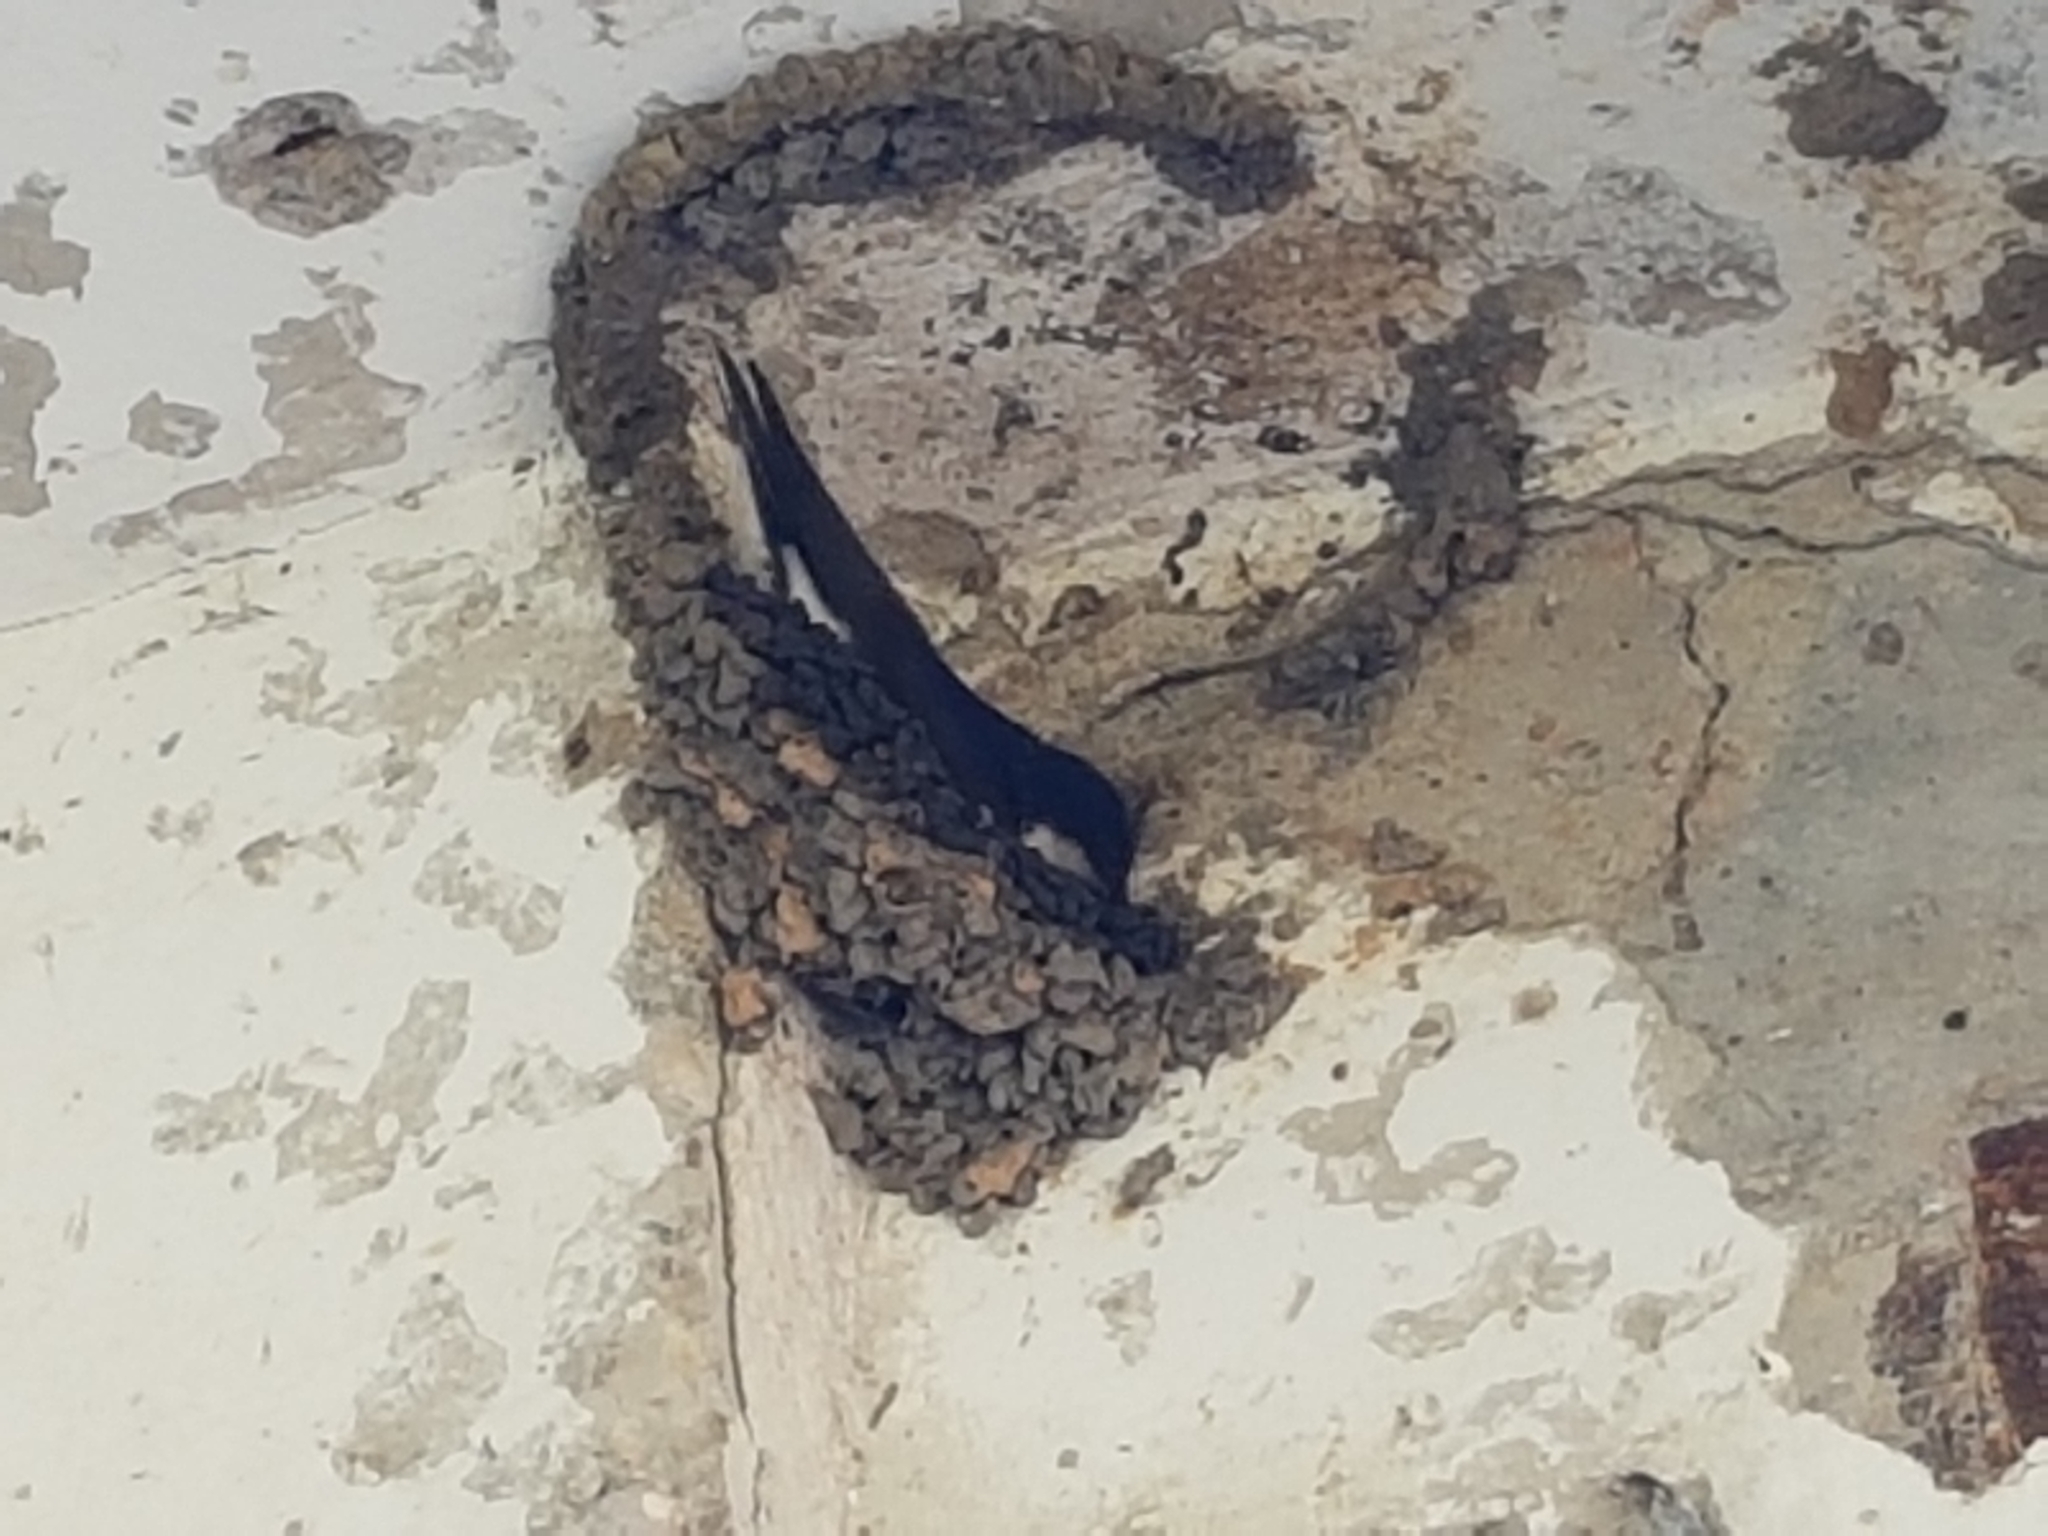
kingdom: Animalia
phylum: Chordata
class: Aves
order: Passeriformes
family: Hirundinidae
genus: Delichon
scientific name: Delichon urbicum
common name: Common house martin
